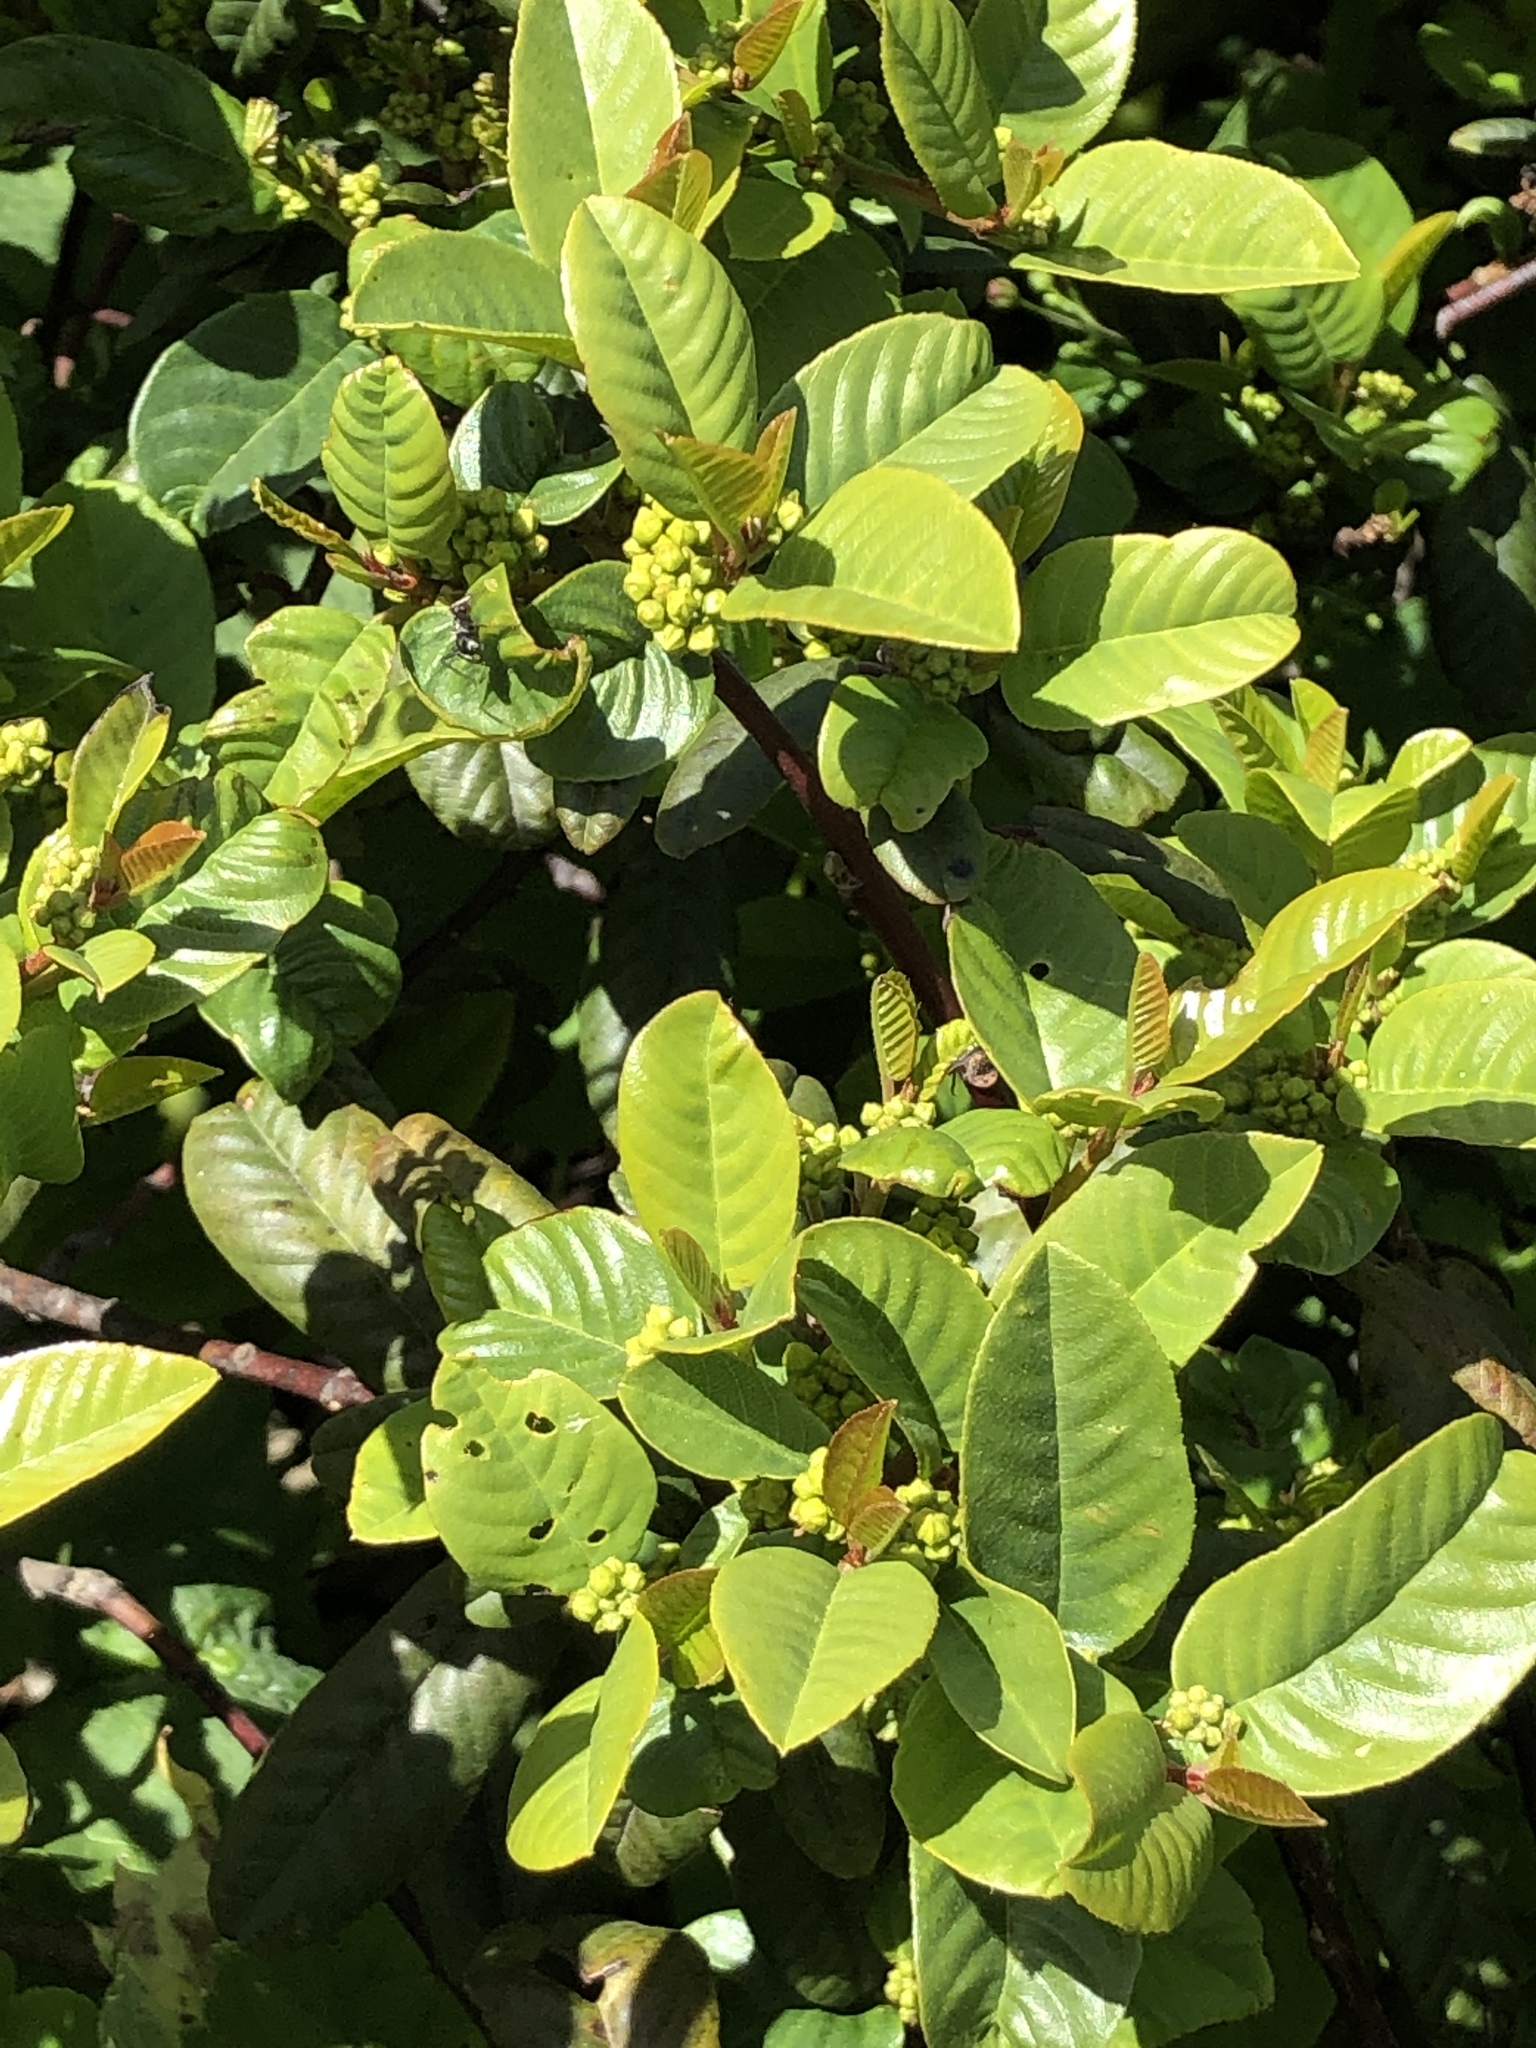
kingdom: Plantae
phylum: Tracheophyta
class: Magnoliopsida
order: Rosales
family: Rhamnaceae
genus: Frangula
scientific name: Frangula californica
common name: California buckthorn
